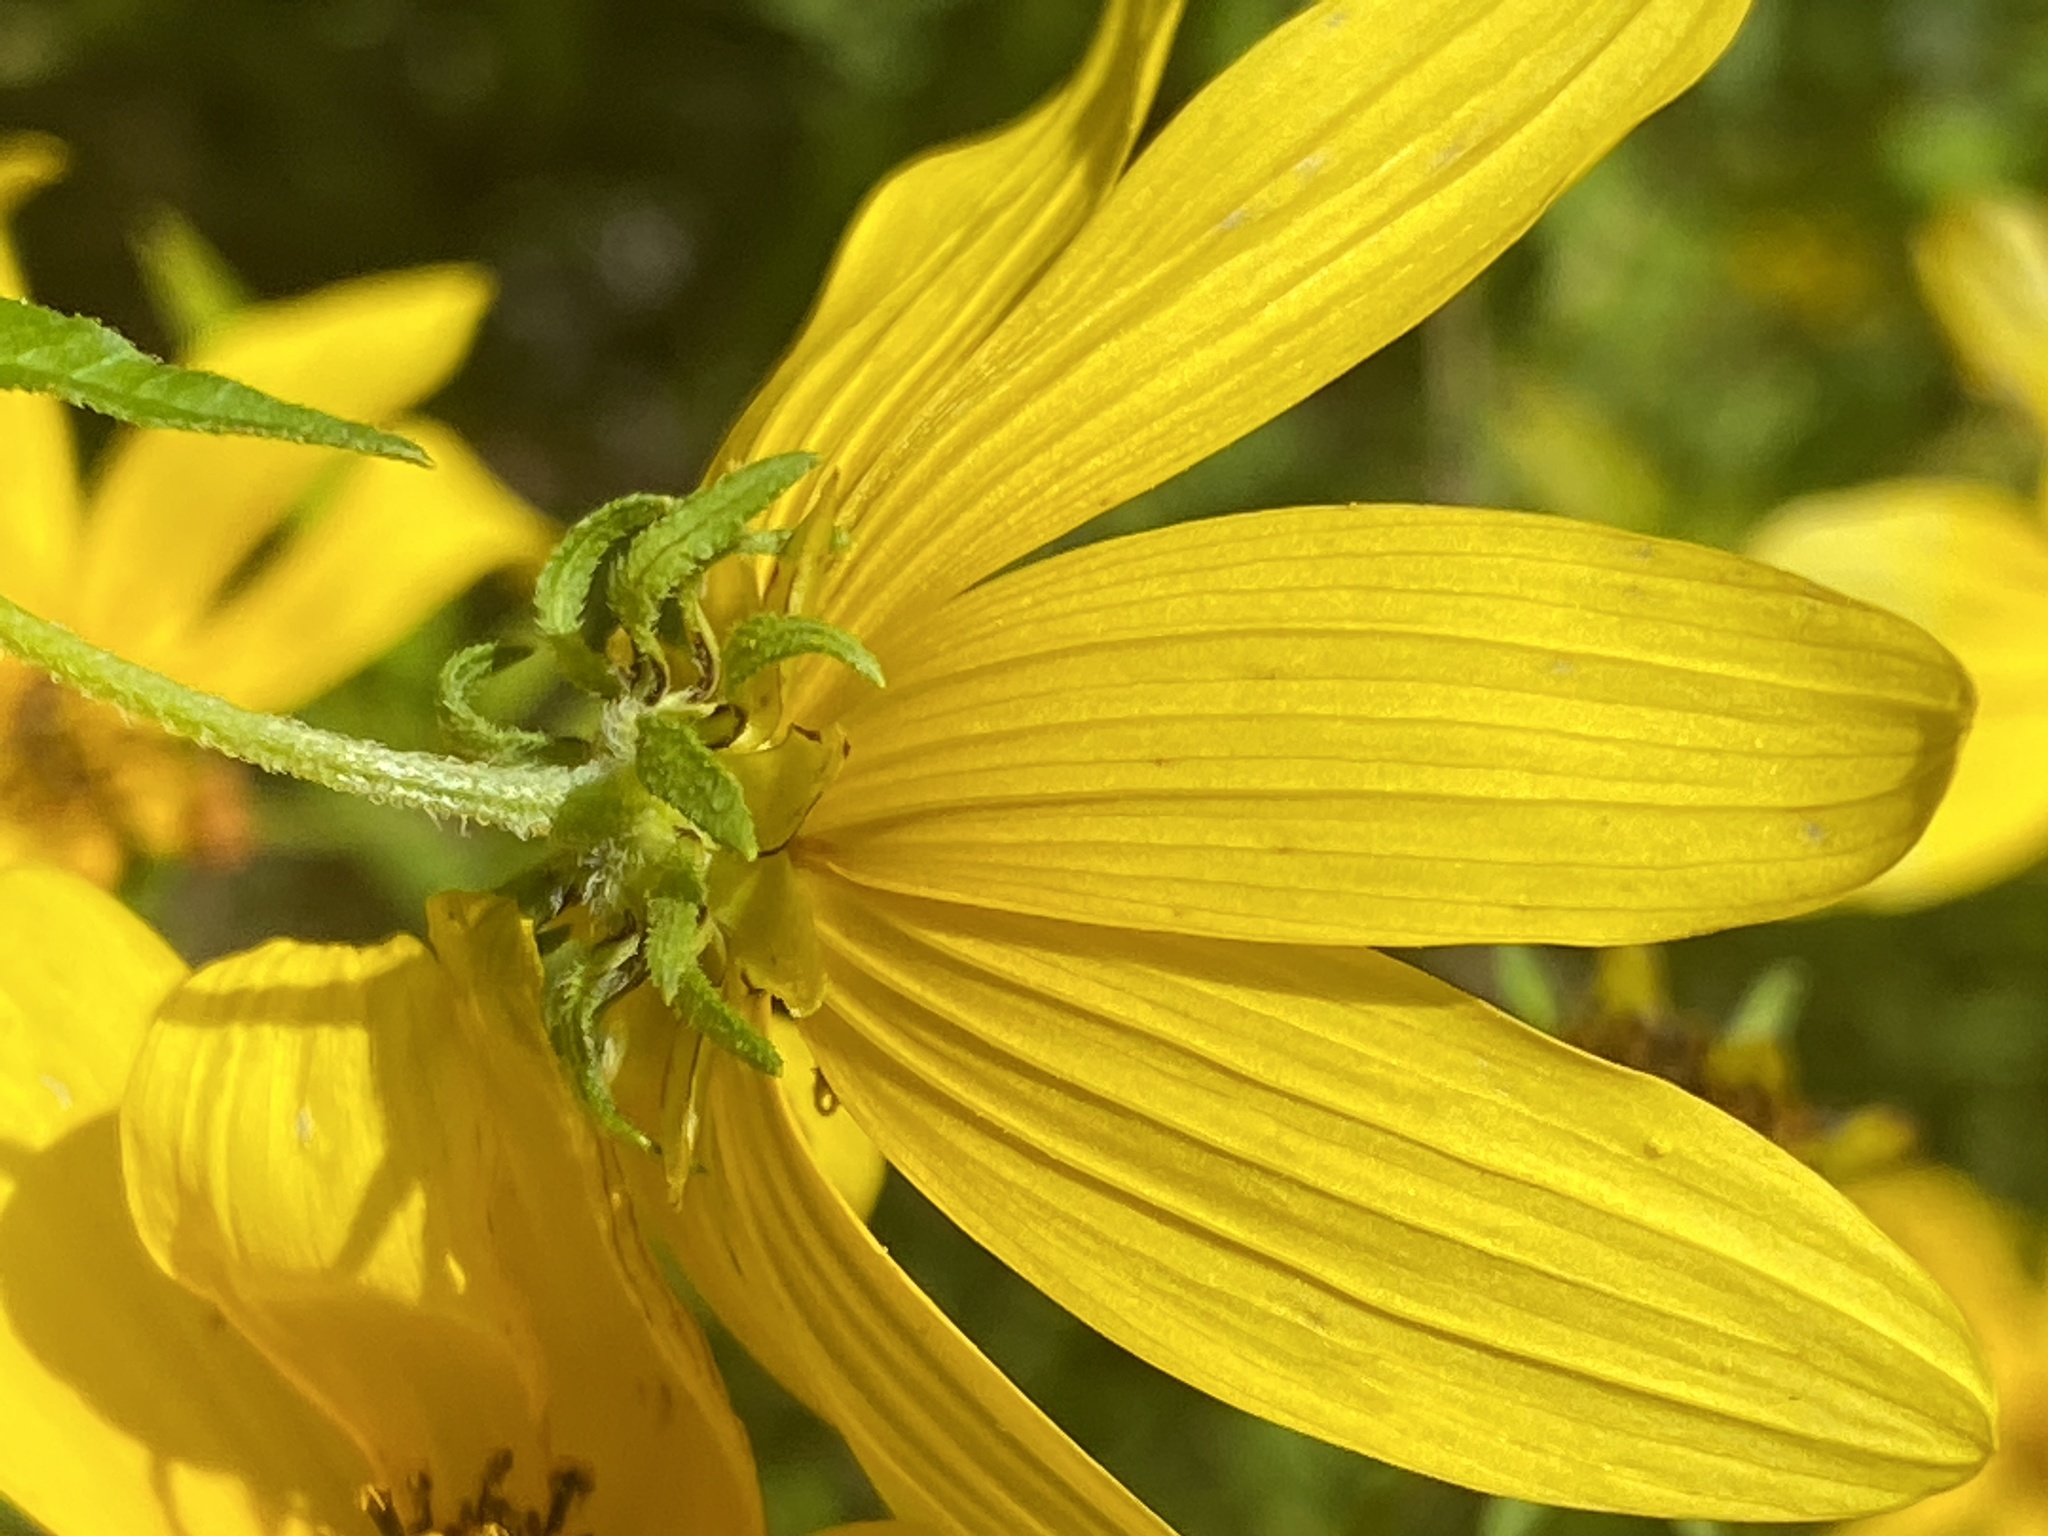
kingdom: Plantae
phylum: Tracheophyta
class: Magnoliopsida
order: Asterales
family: Asteraceae
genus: Bidens
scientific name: Bidens aristosa
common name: Western tickseed
